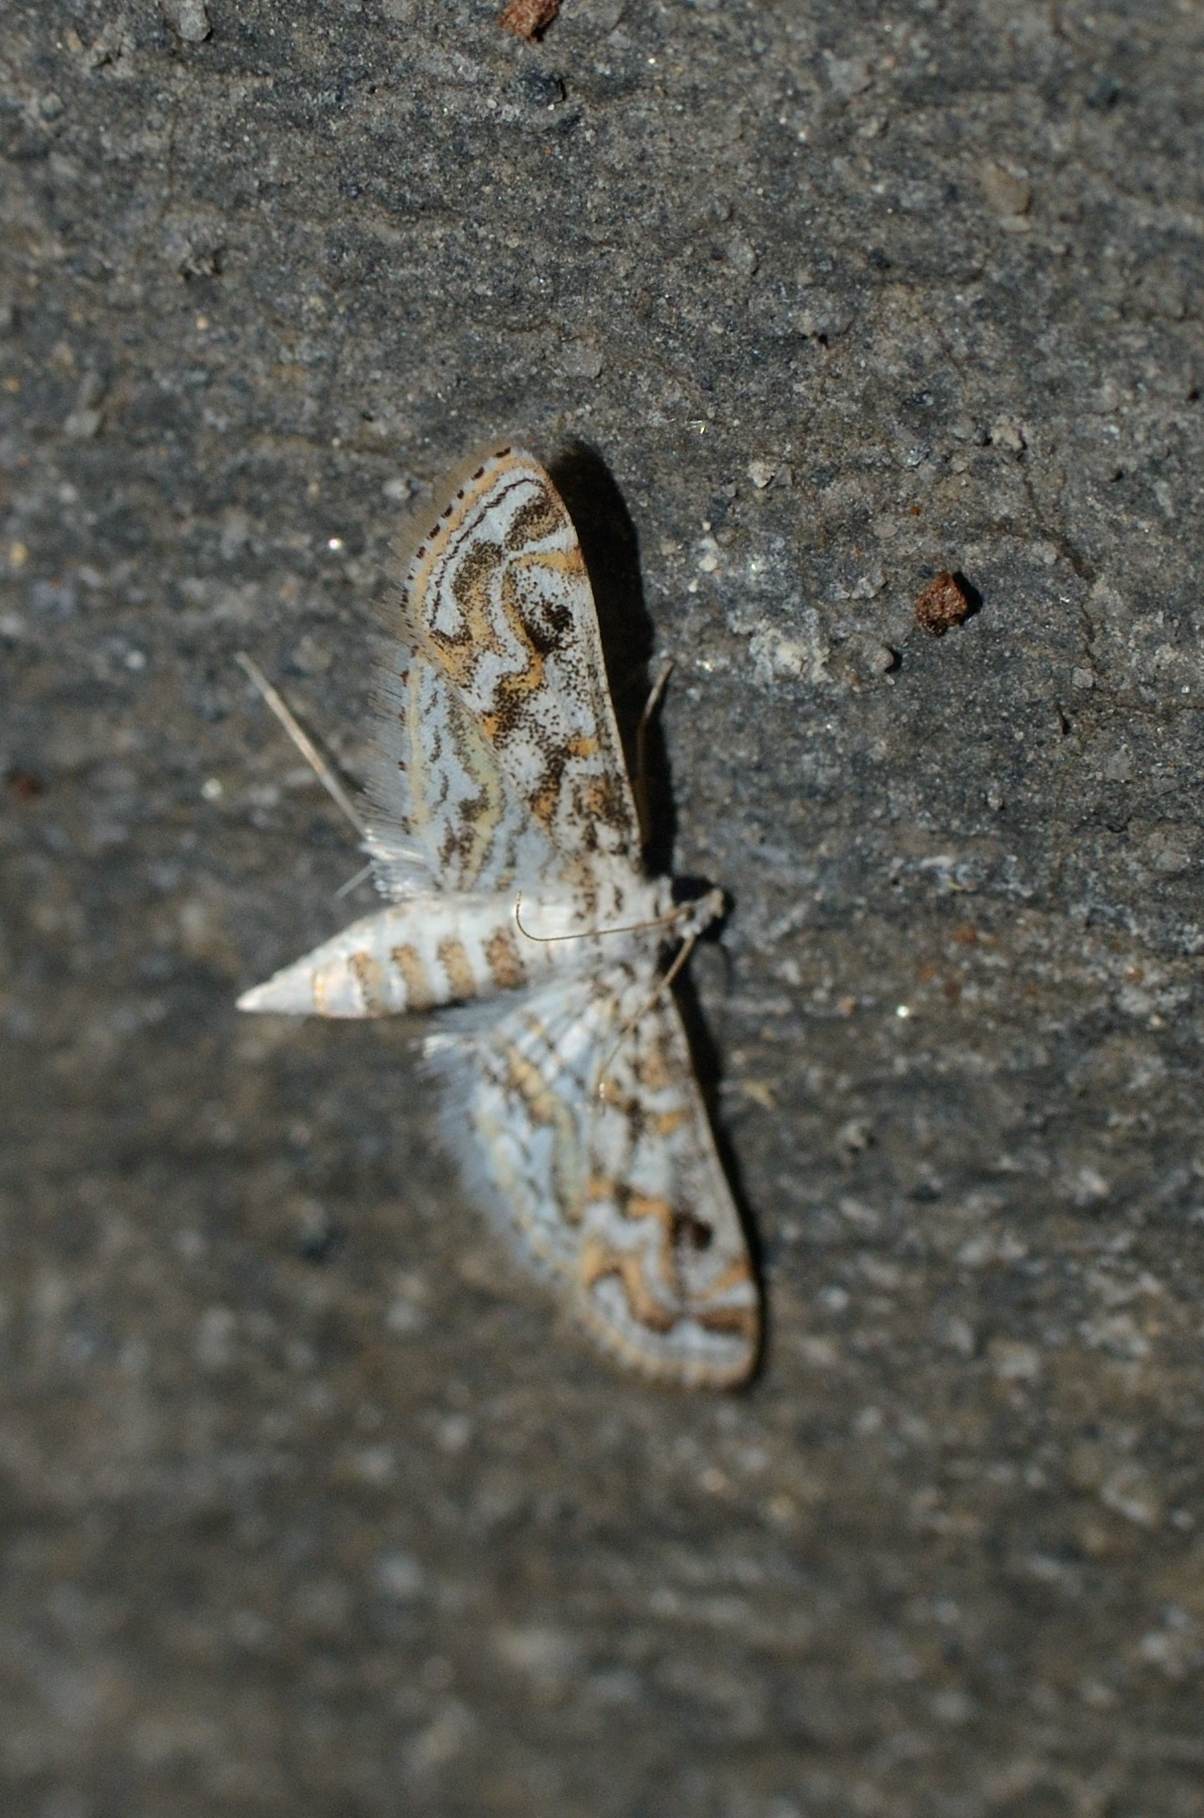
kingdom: Animalia
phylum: Arthropoda
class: Insecta
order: Lepidoptera
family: Crambidae
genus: Parapoynx
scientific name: Parapoynx diminutalis
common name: Hydrilla leafcutter
